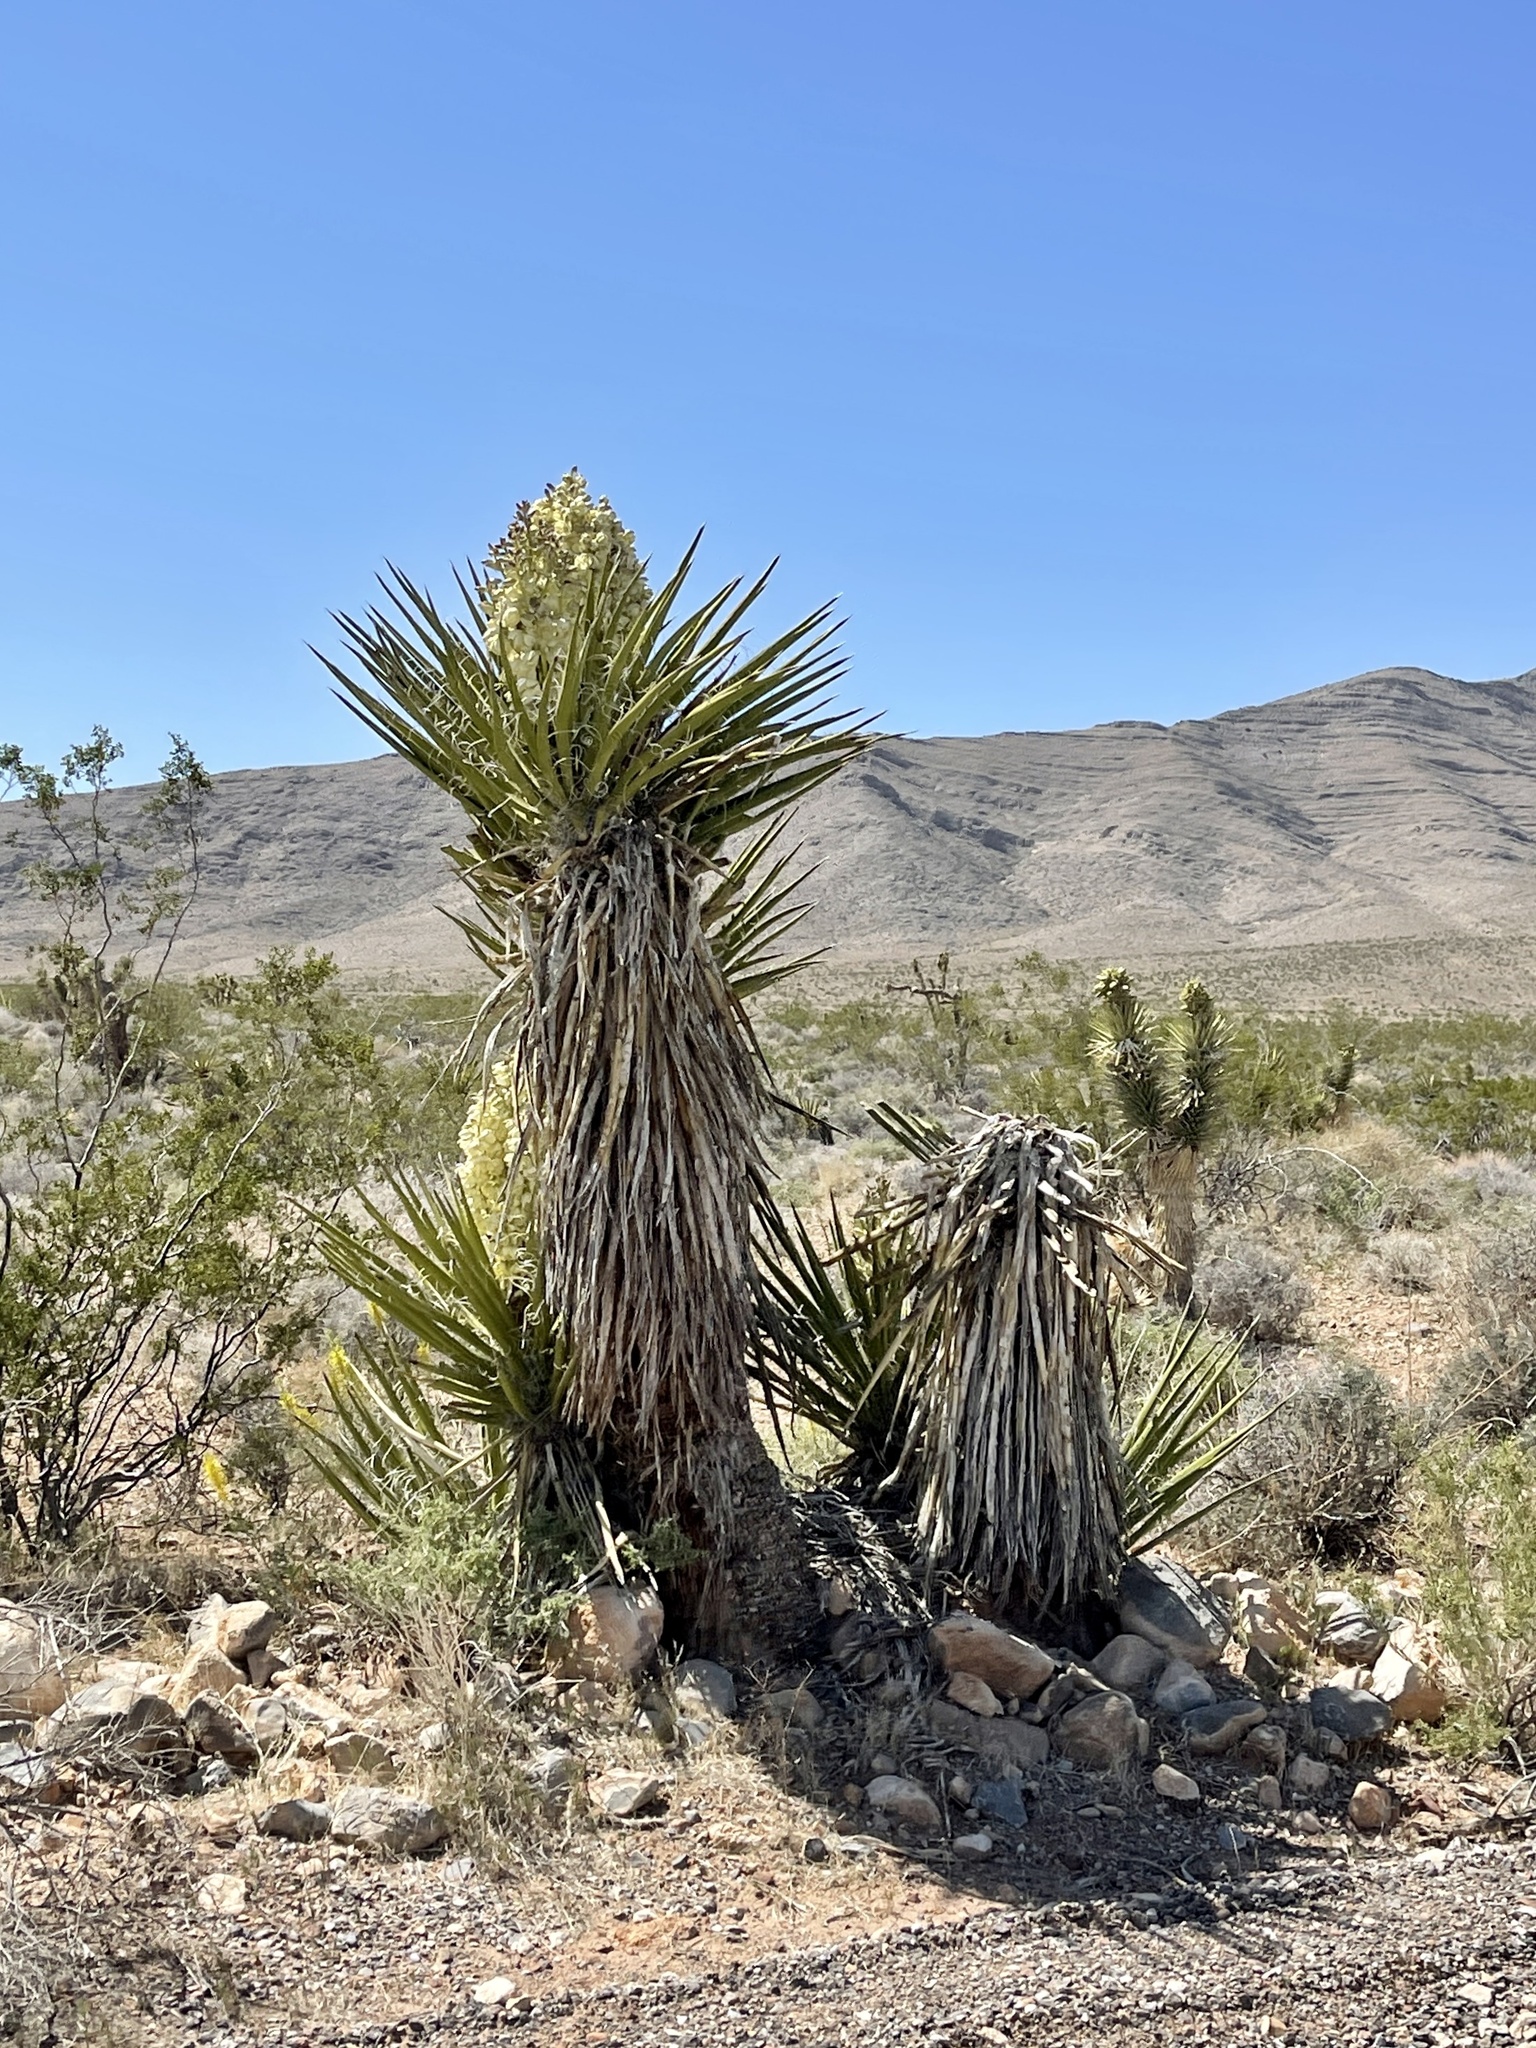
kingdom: Plantae
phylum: Tracheophyta
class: Liliopsida
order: Asparagales
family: Asparagaceae
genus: Yucca
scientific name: Yucca schidigera
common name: Mojave yucca
